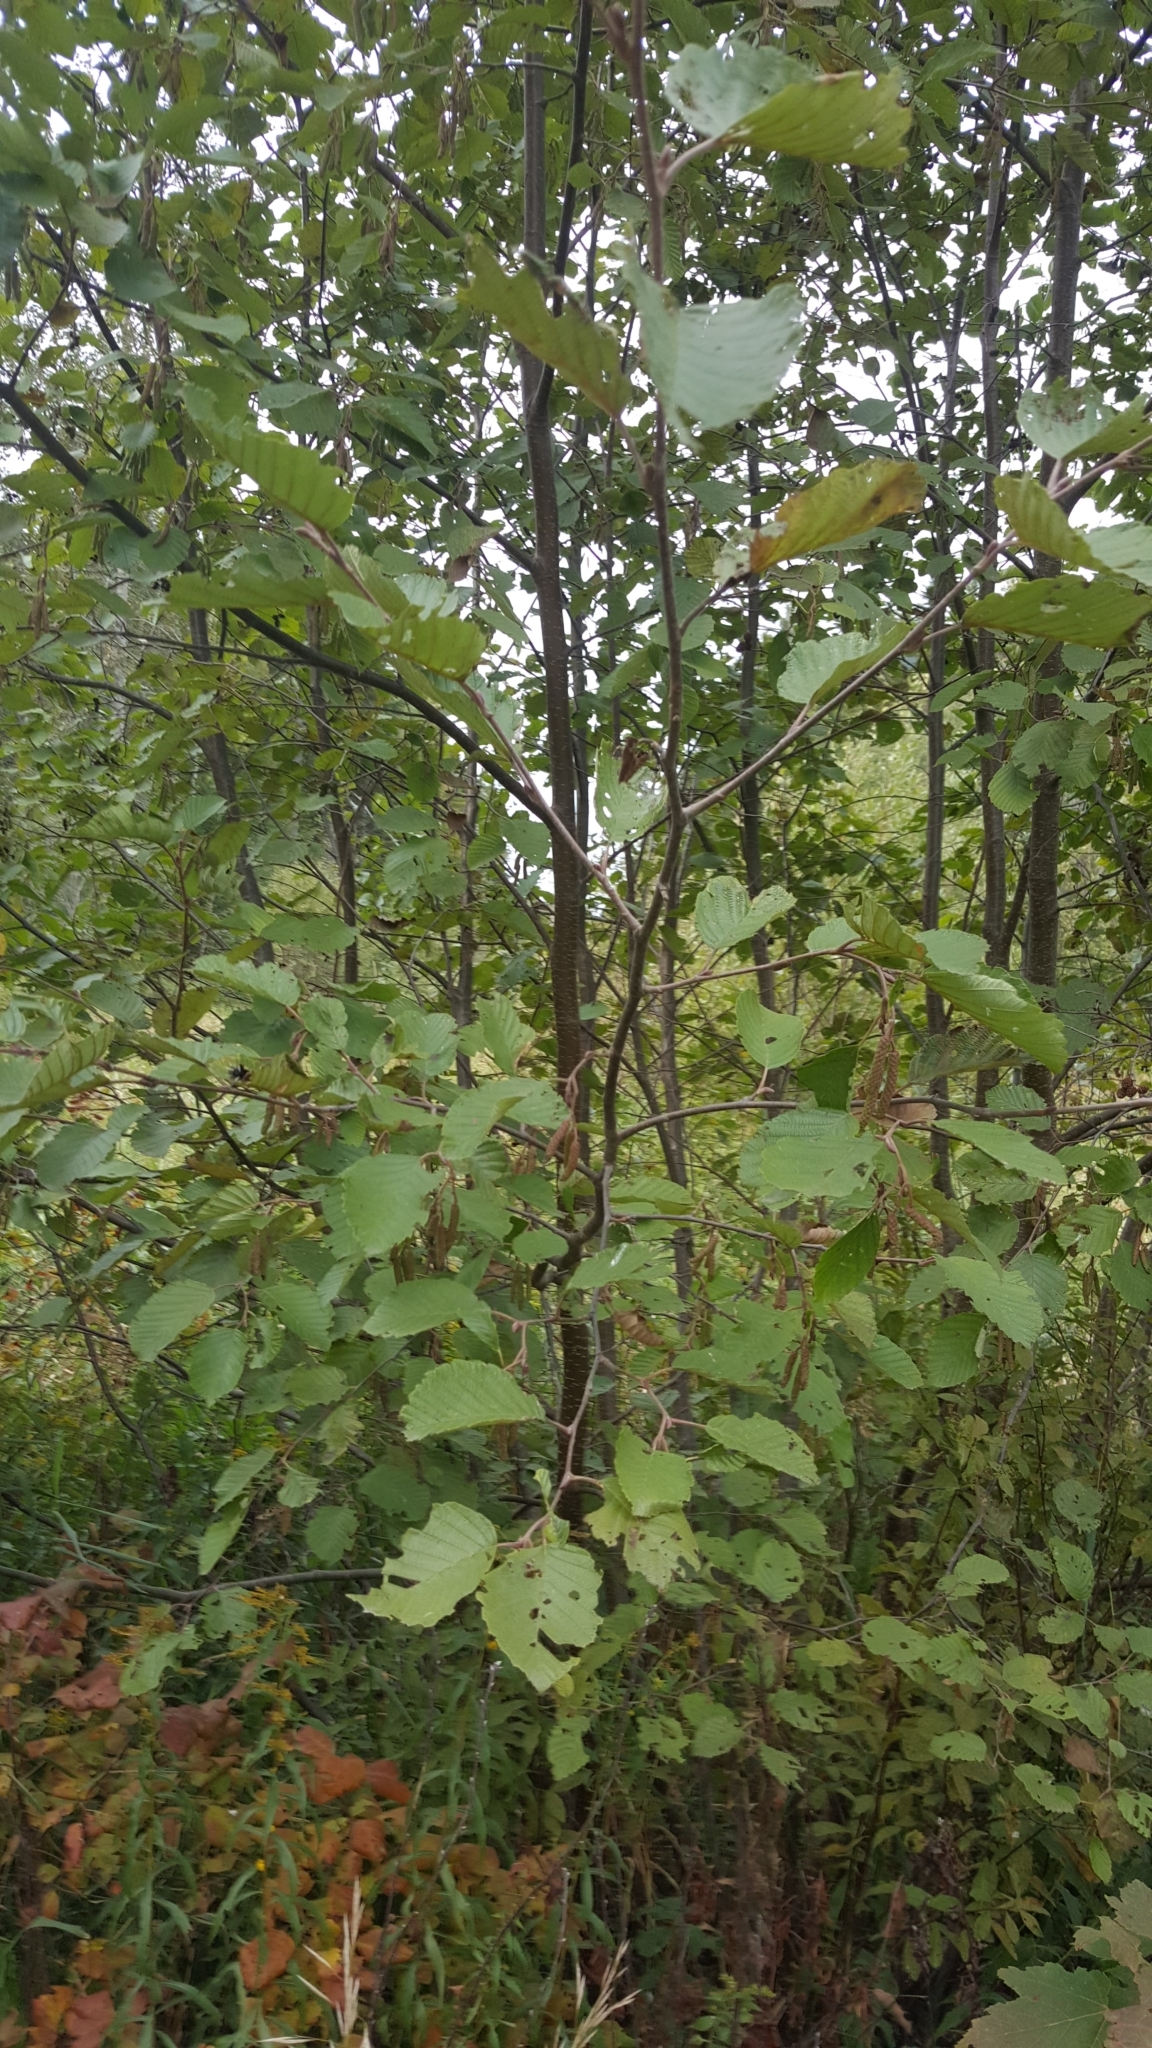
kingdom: Plantae
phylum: Tracheophyta
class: Magnoliopsida
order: Fagales
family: Betulaceae
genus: Alnus
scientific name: Alnus incana
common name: Grey alder
